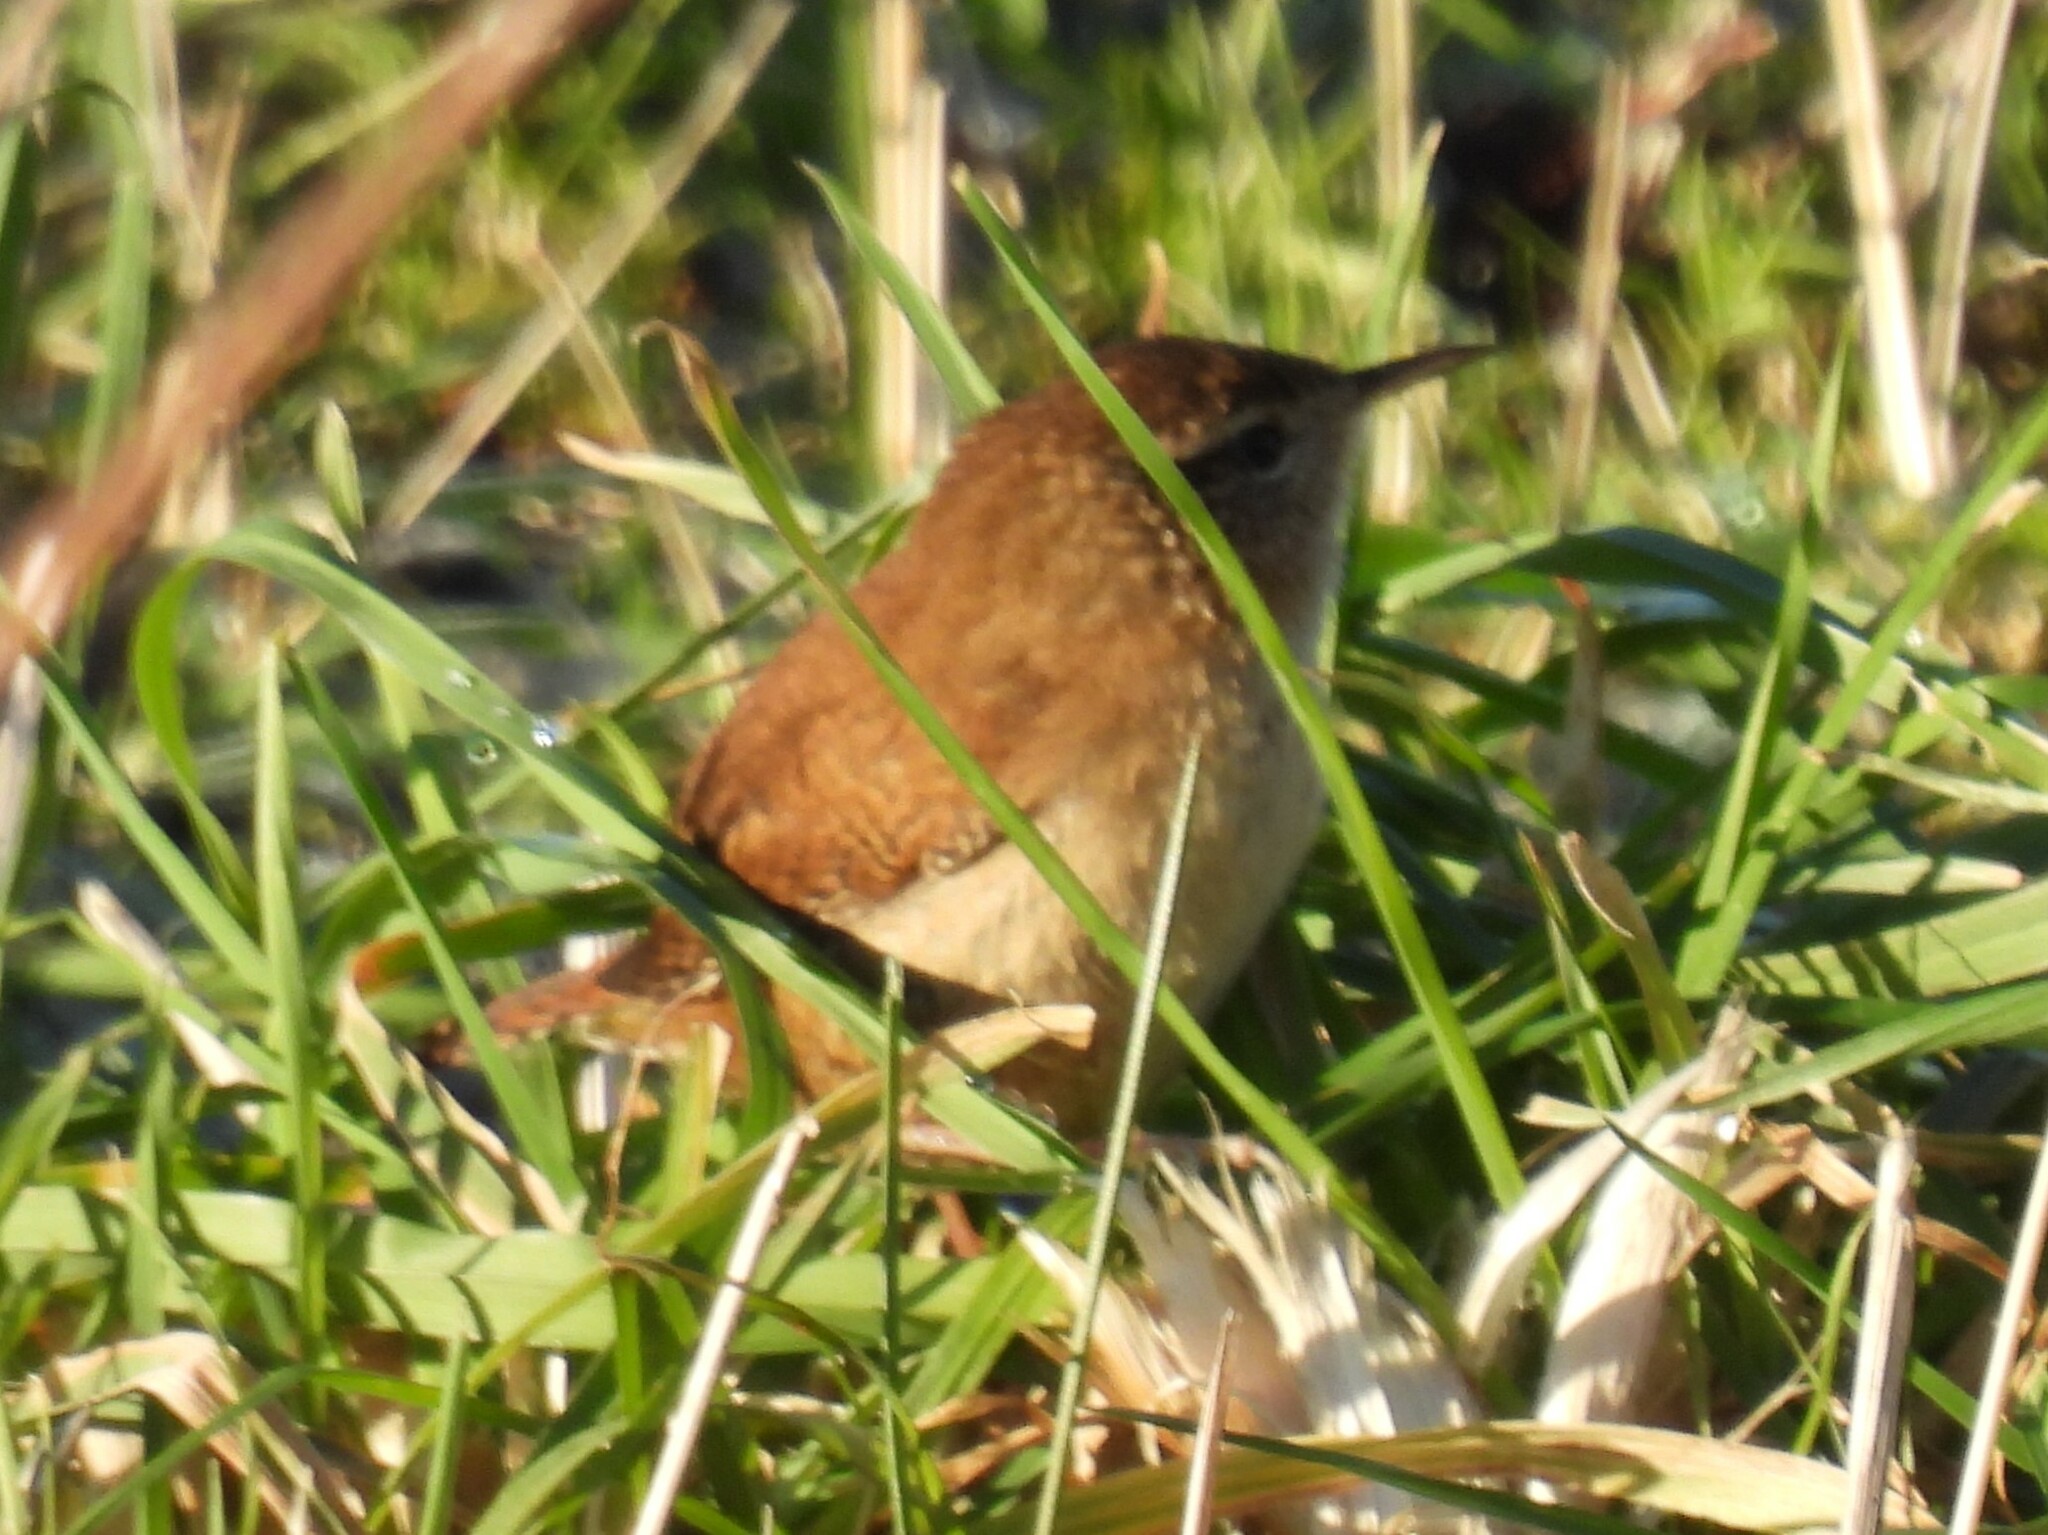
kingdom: Animalia
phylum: Chordata
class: Aves
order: Passeriformes
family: Troglodytidae
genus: Troglodytes
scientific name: Troglodytes troglodytes
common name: Eurasian wren
